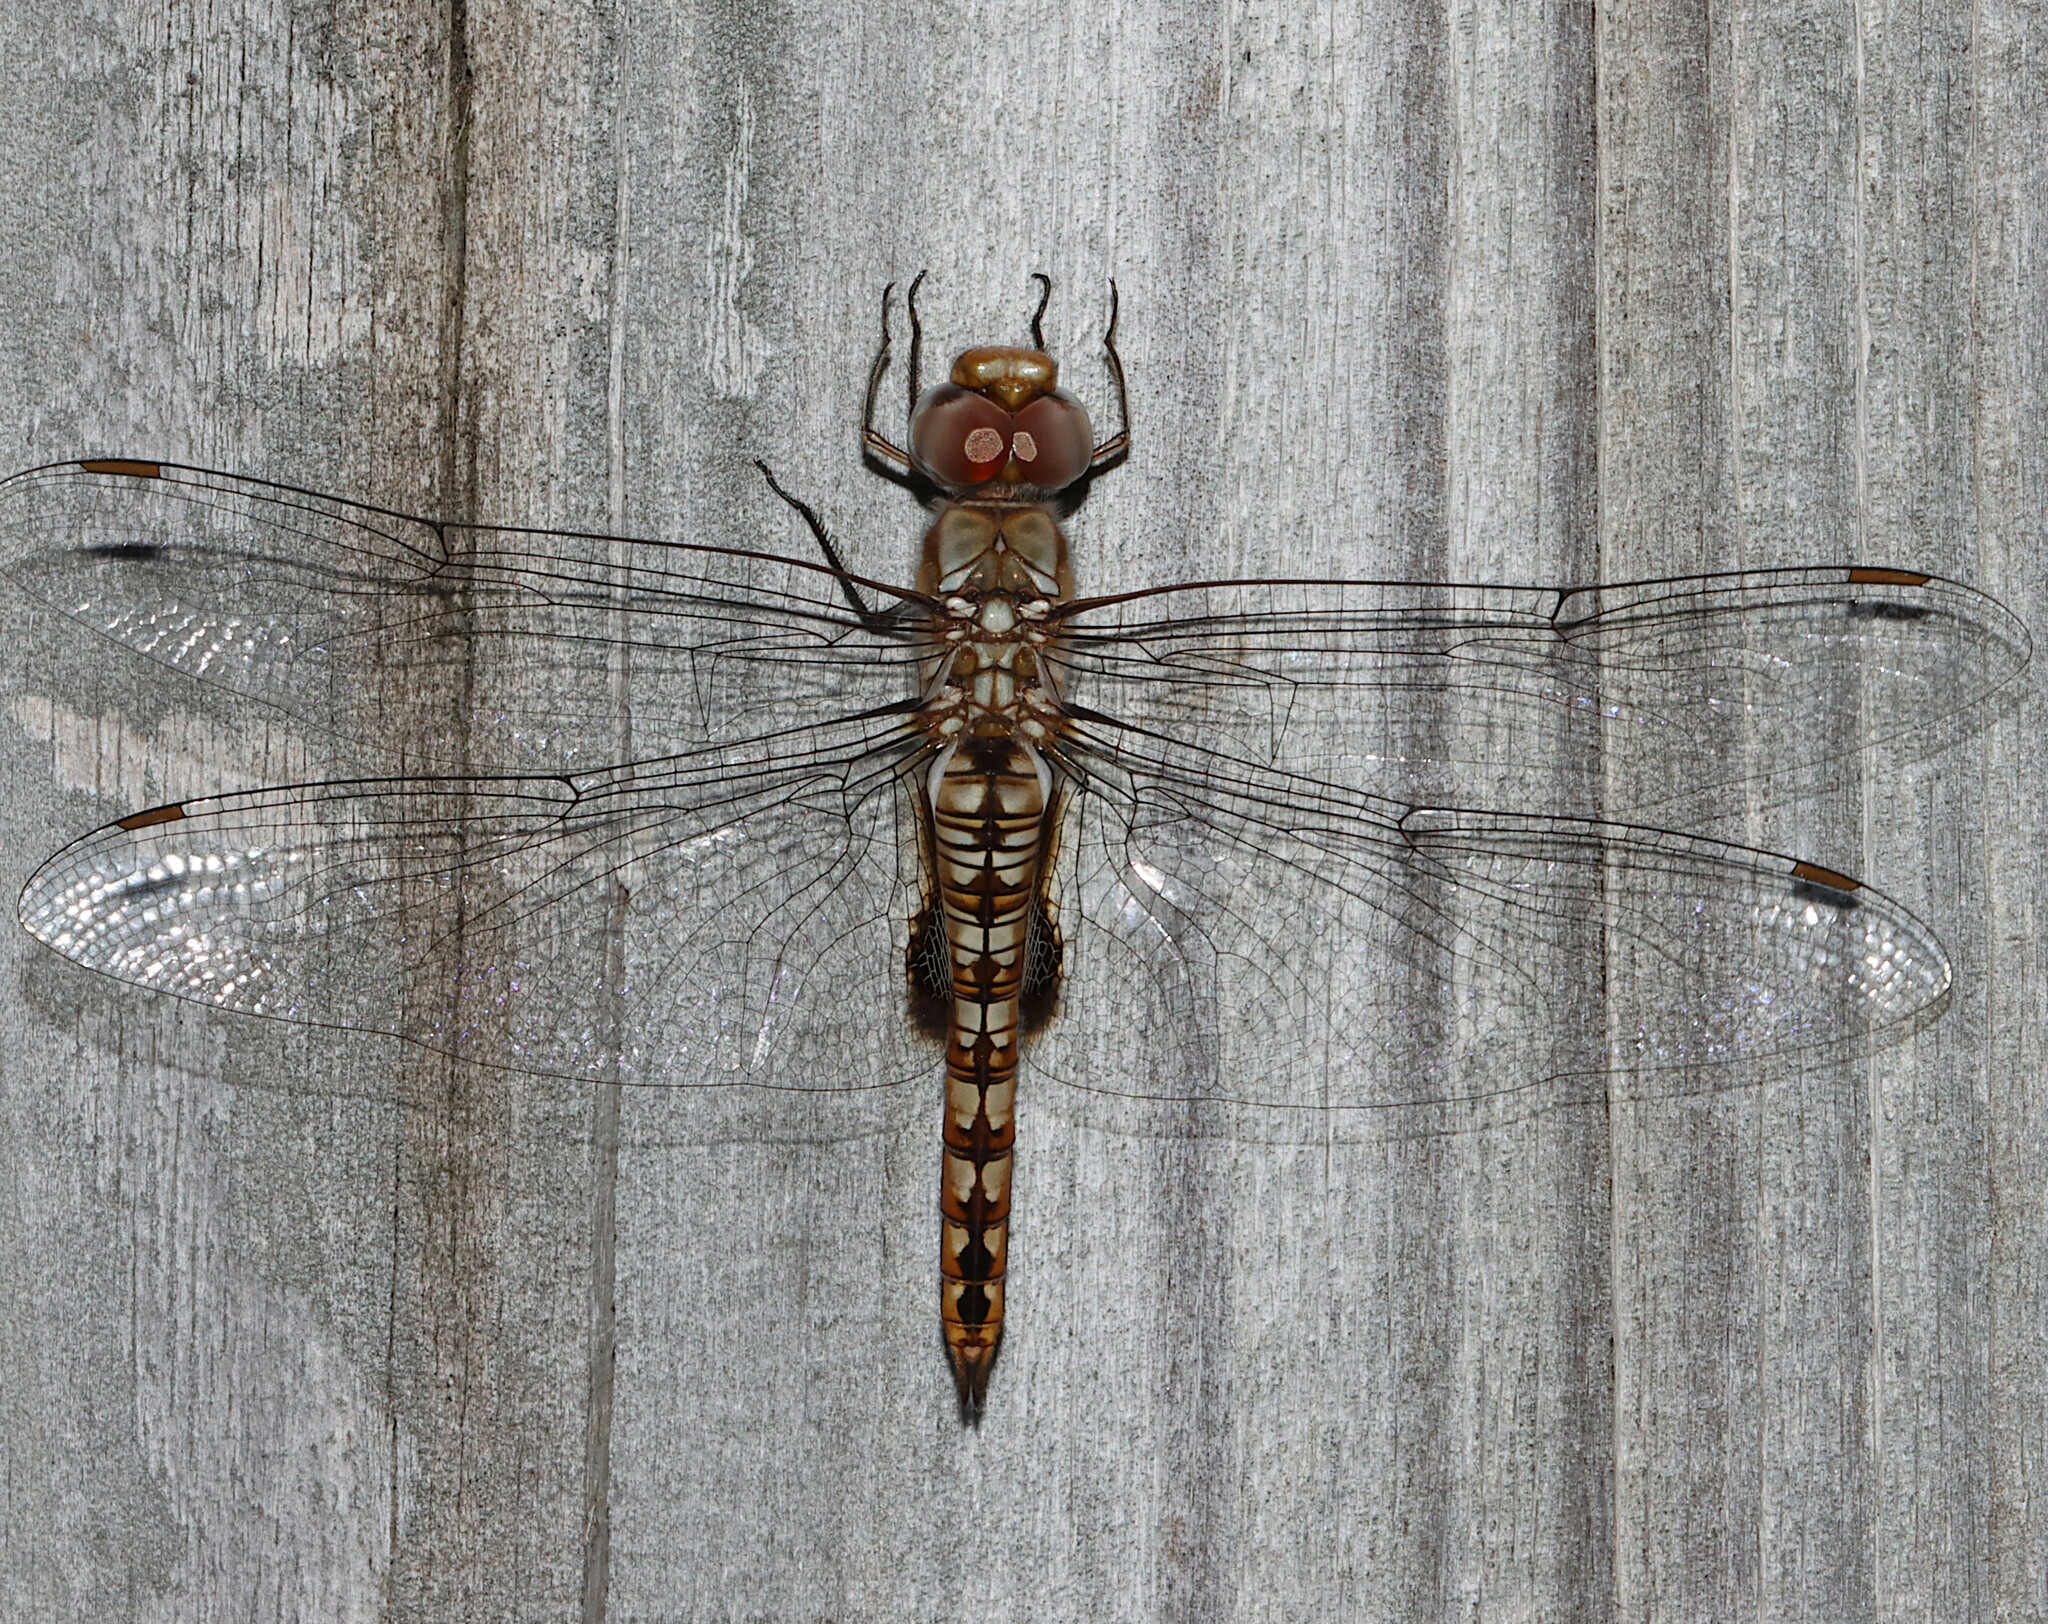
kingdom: Animalia
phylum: Arthropoda
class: Insecta
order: Odonata
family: Libellulidae
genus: Pantala
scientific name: Pantala hymenaea
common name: Spot-winged glider
